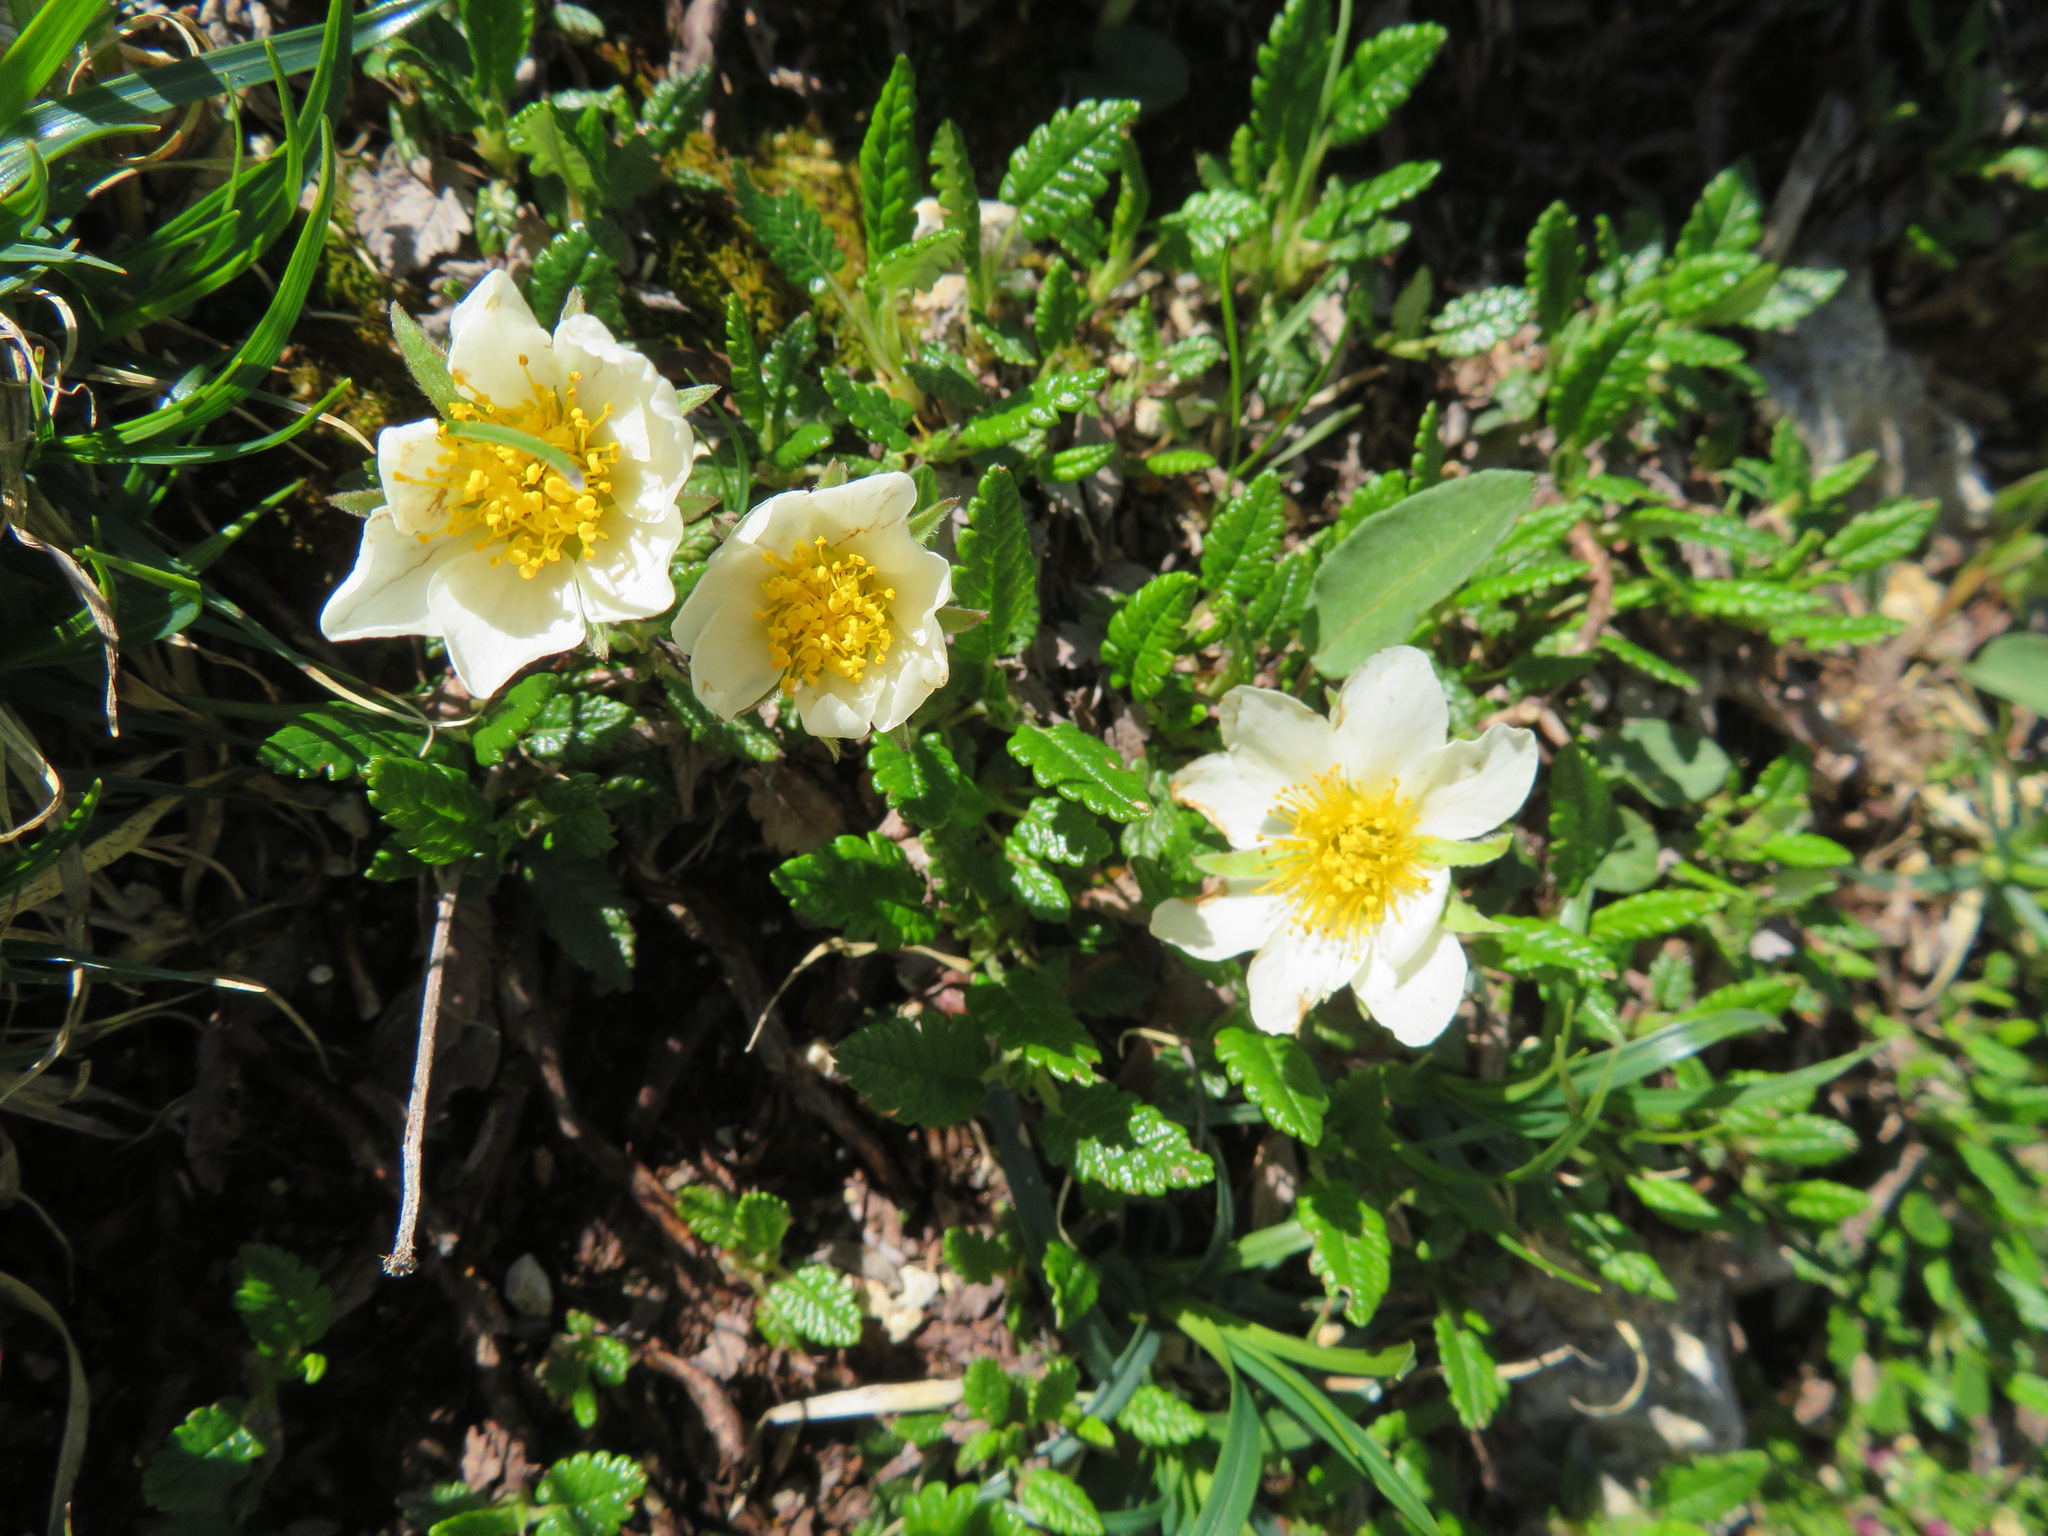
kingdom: Plantae
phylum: Tracheophyta
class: Magnoliopsida
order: Rosales
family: Rosaceae
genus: Dryas
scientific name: Dryas octopetala
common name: Eight-petal mountain-avens
